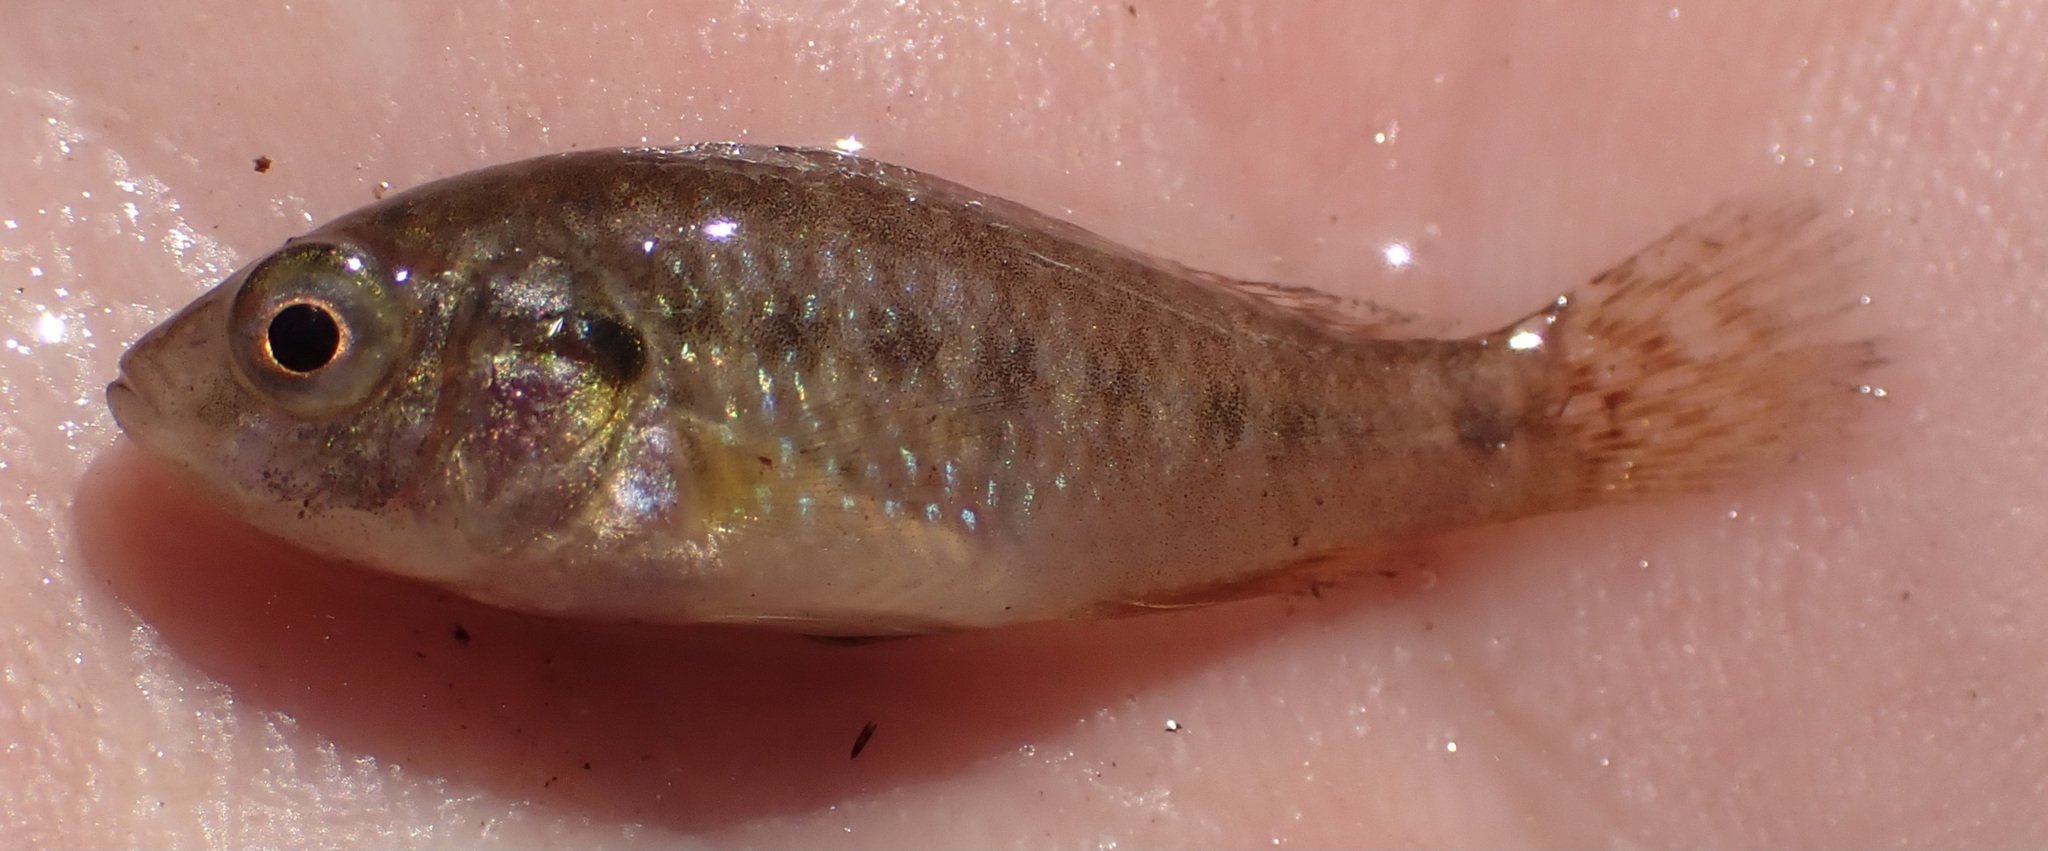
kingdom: Animalia
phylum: Chordata
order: Perciformes
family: Cichlidae
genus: Pseudocrenilabrus
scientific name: Pseudocrenilabrus philander
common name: Southern mouthbrooder
